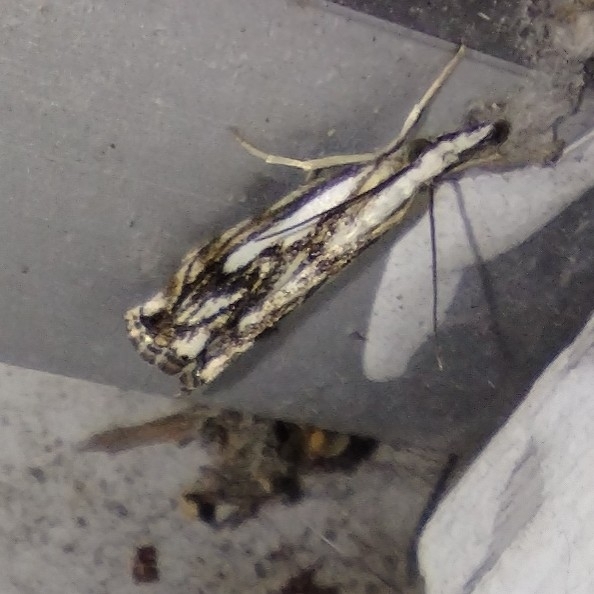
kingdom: Animalia
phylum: Arthropoda
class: Insecta
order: Lepidoptera
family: Crambidae
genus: Catoptria
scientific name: Catoptria falsella
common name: Chequered grass-veneer
